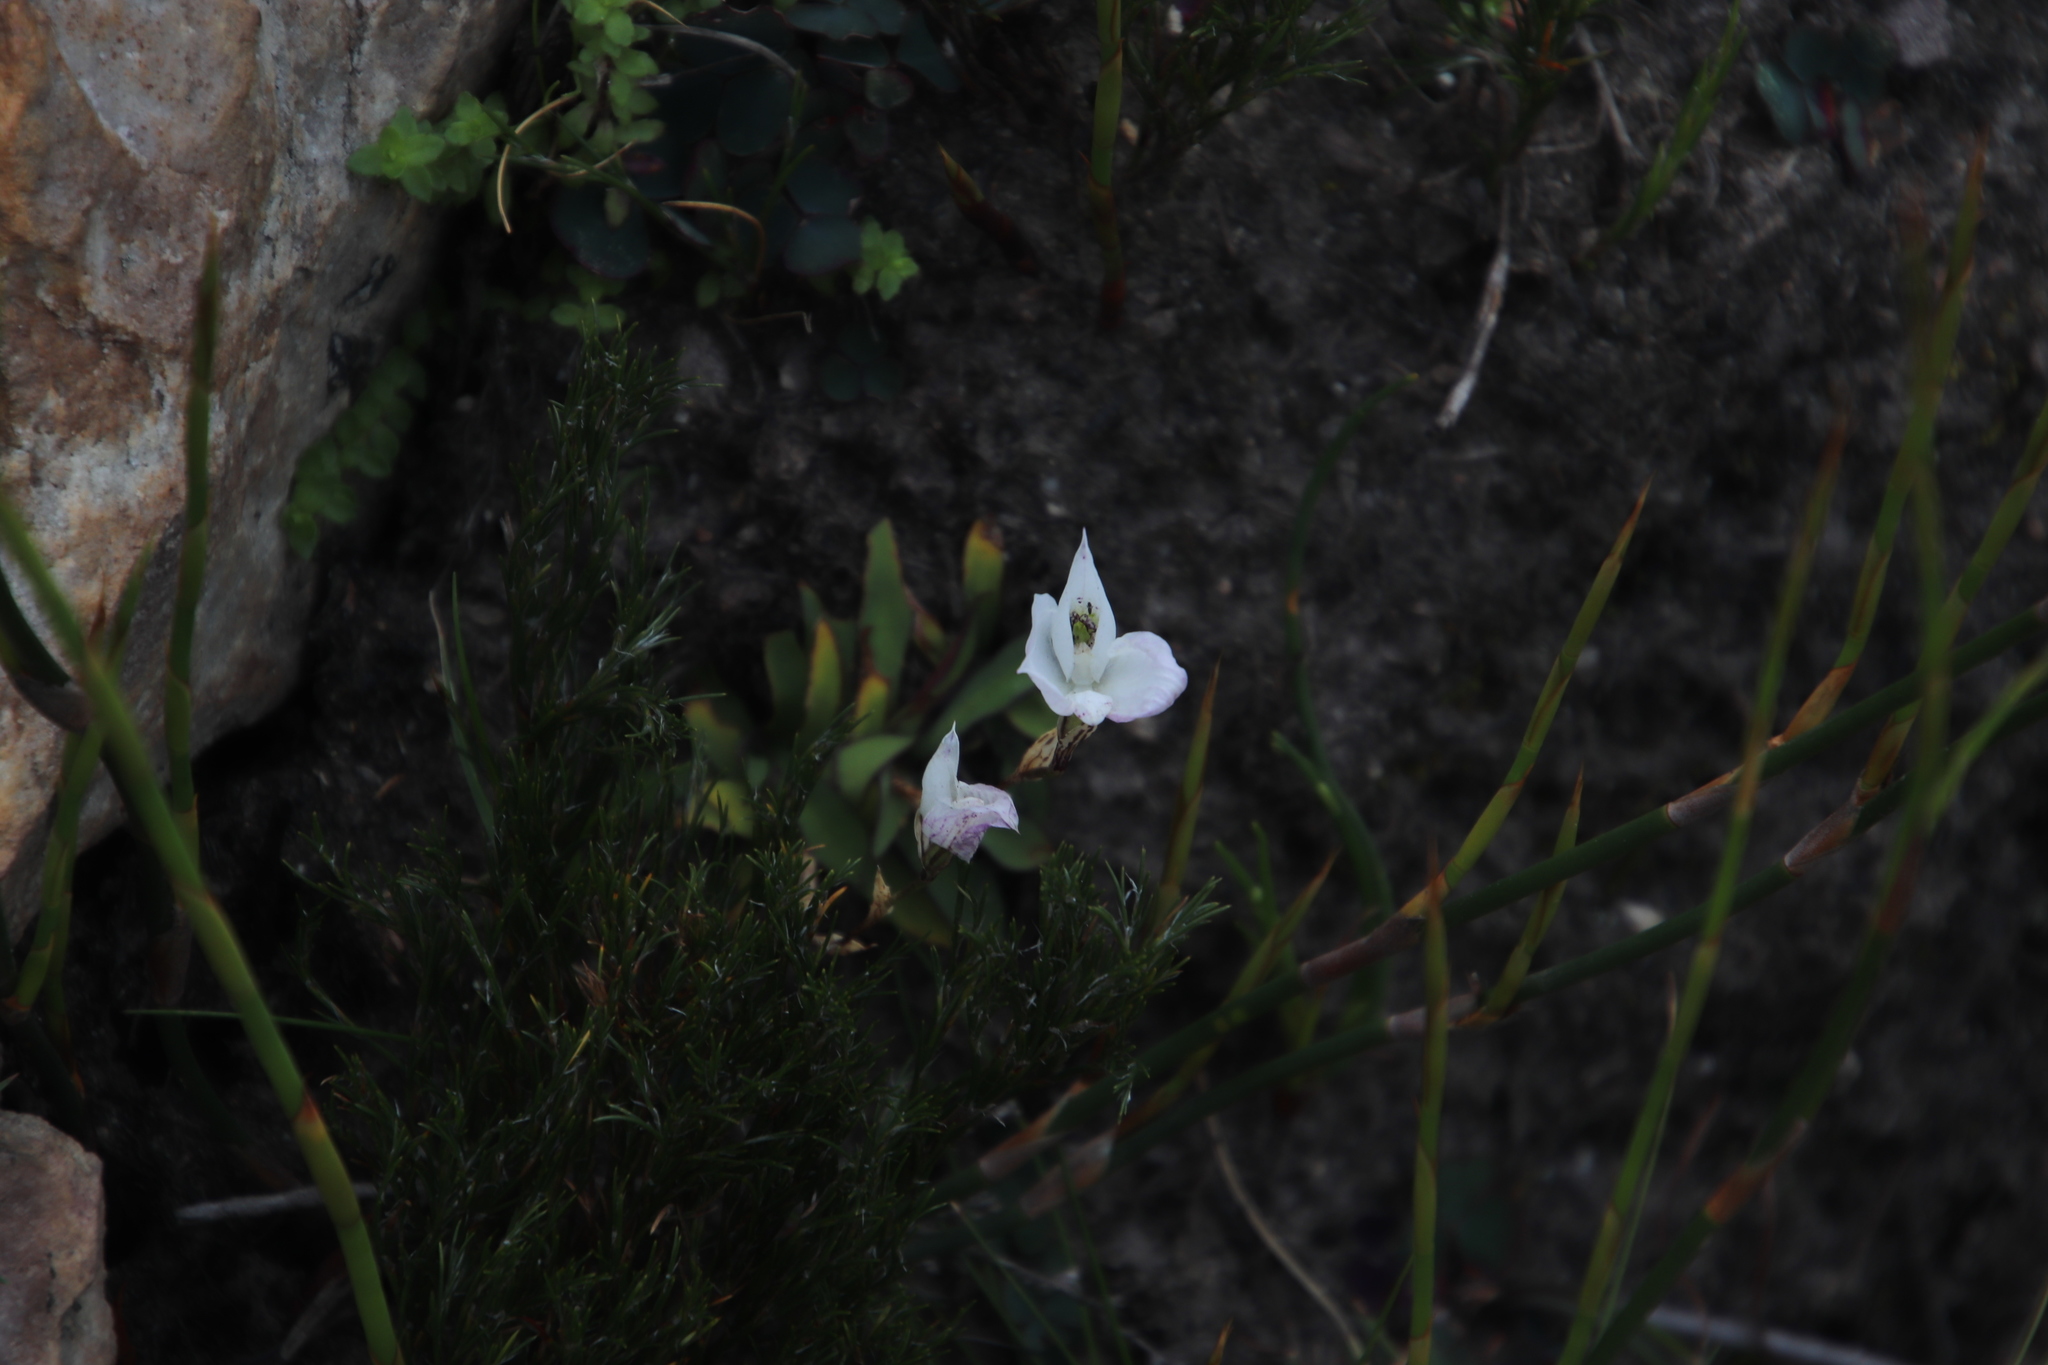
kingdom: Plantae
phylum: Tracheophyta
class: Liliopsida
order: Asparagales
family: Orchidaceae
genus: Disa
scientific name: Disa virginalis
